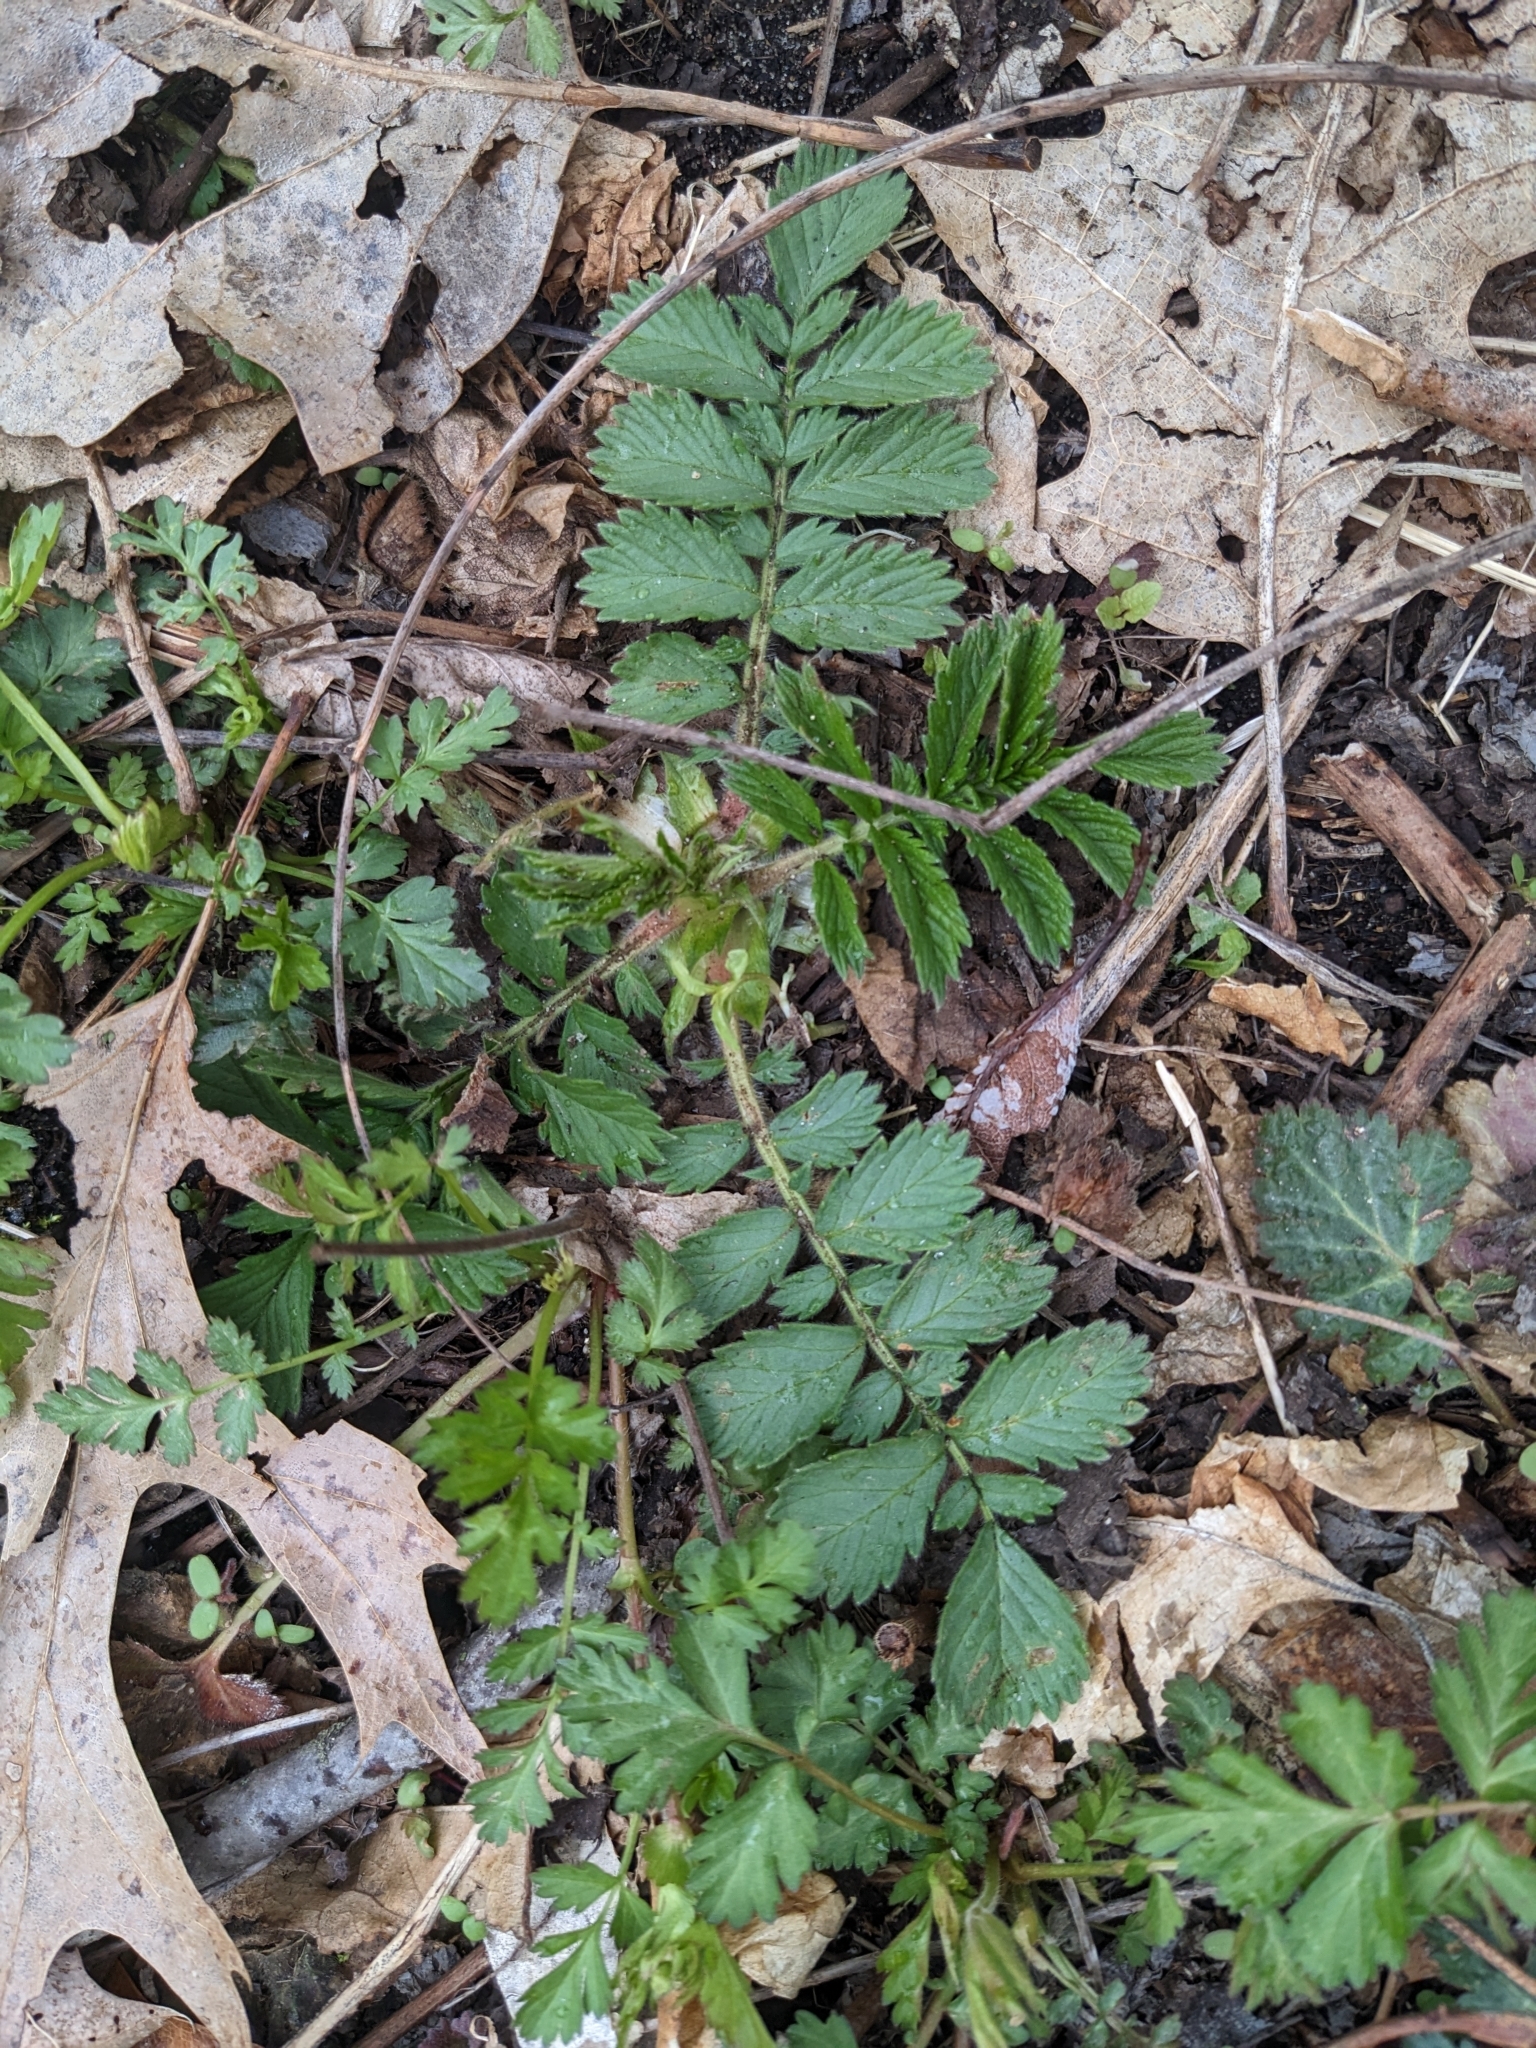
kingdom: Plantae
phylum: Tracheophyta
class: Magnoliopsida
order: Rosales
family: Rosaceae
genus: Agrimonia
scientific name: Agrimonia parviflora
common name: Harvest-lice
